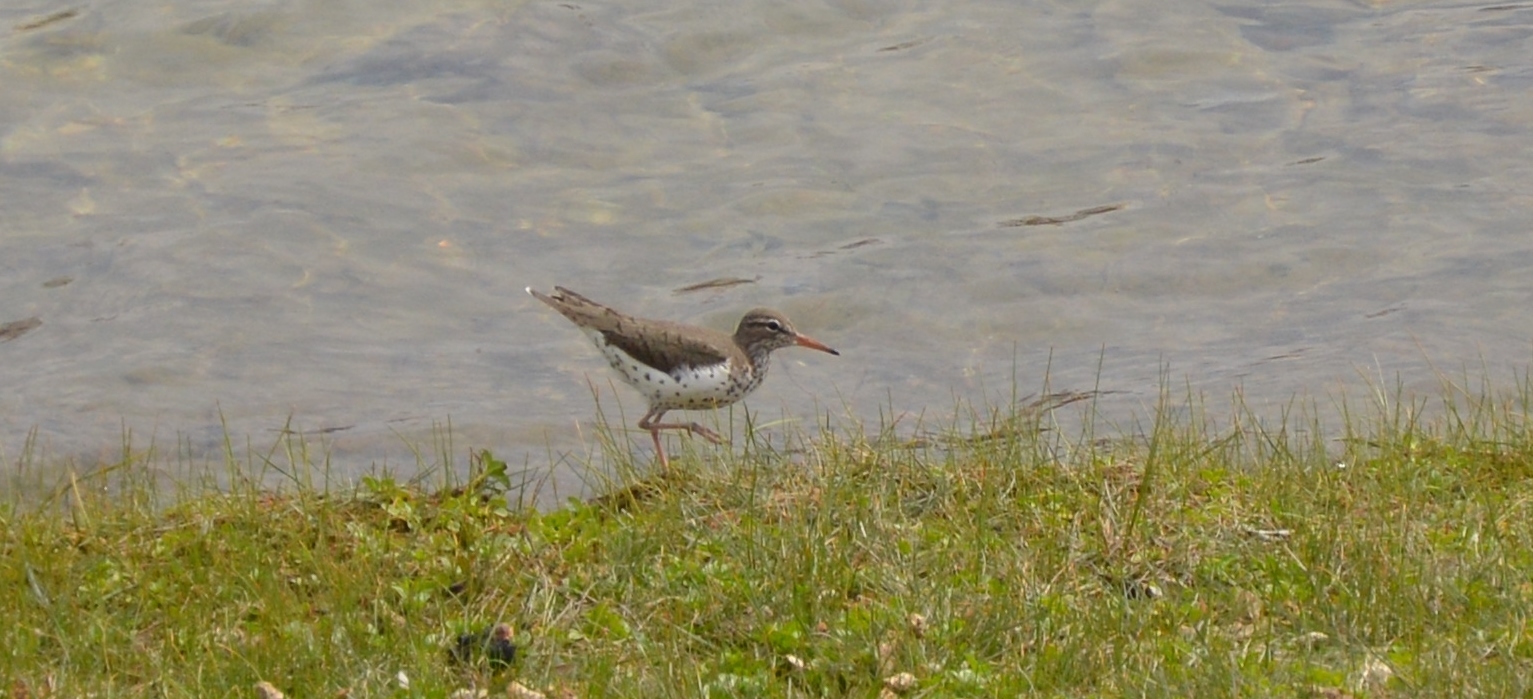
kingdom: Animalia
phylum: Chordata
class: Aves
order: Charadriiformes
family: Scolopacidae
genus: Actitis
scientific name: Actitis macularius
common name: Spotted sandpiper
